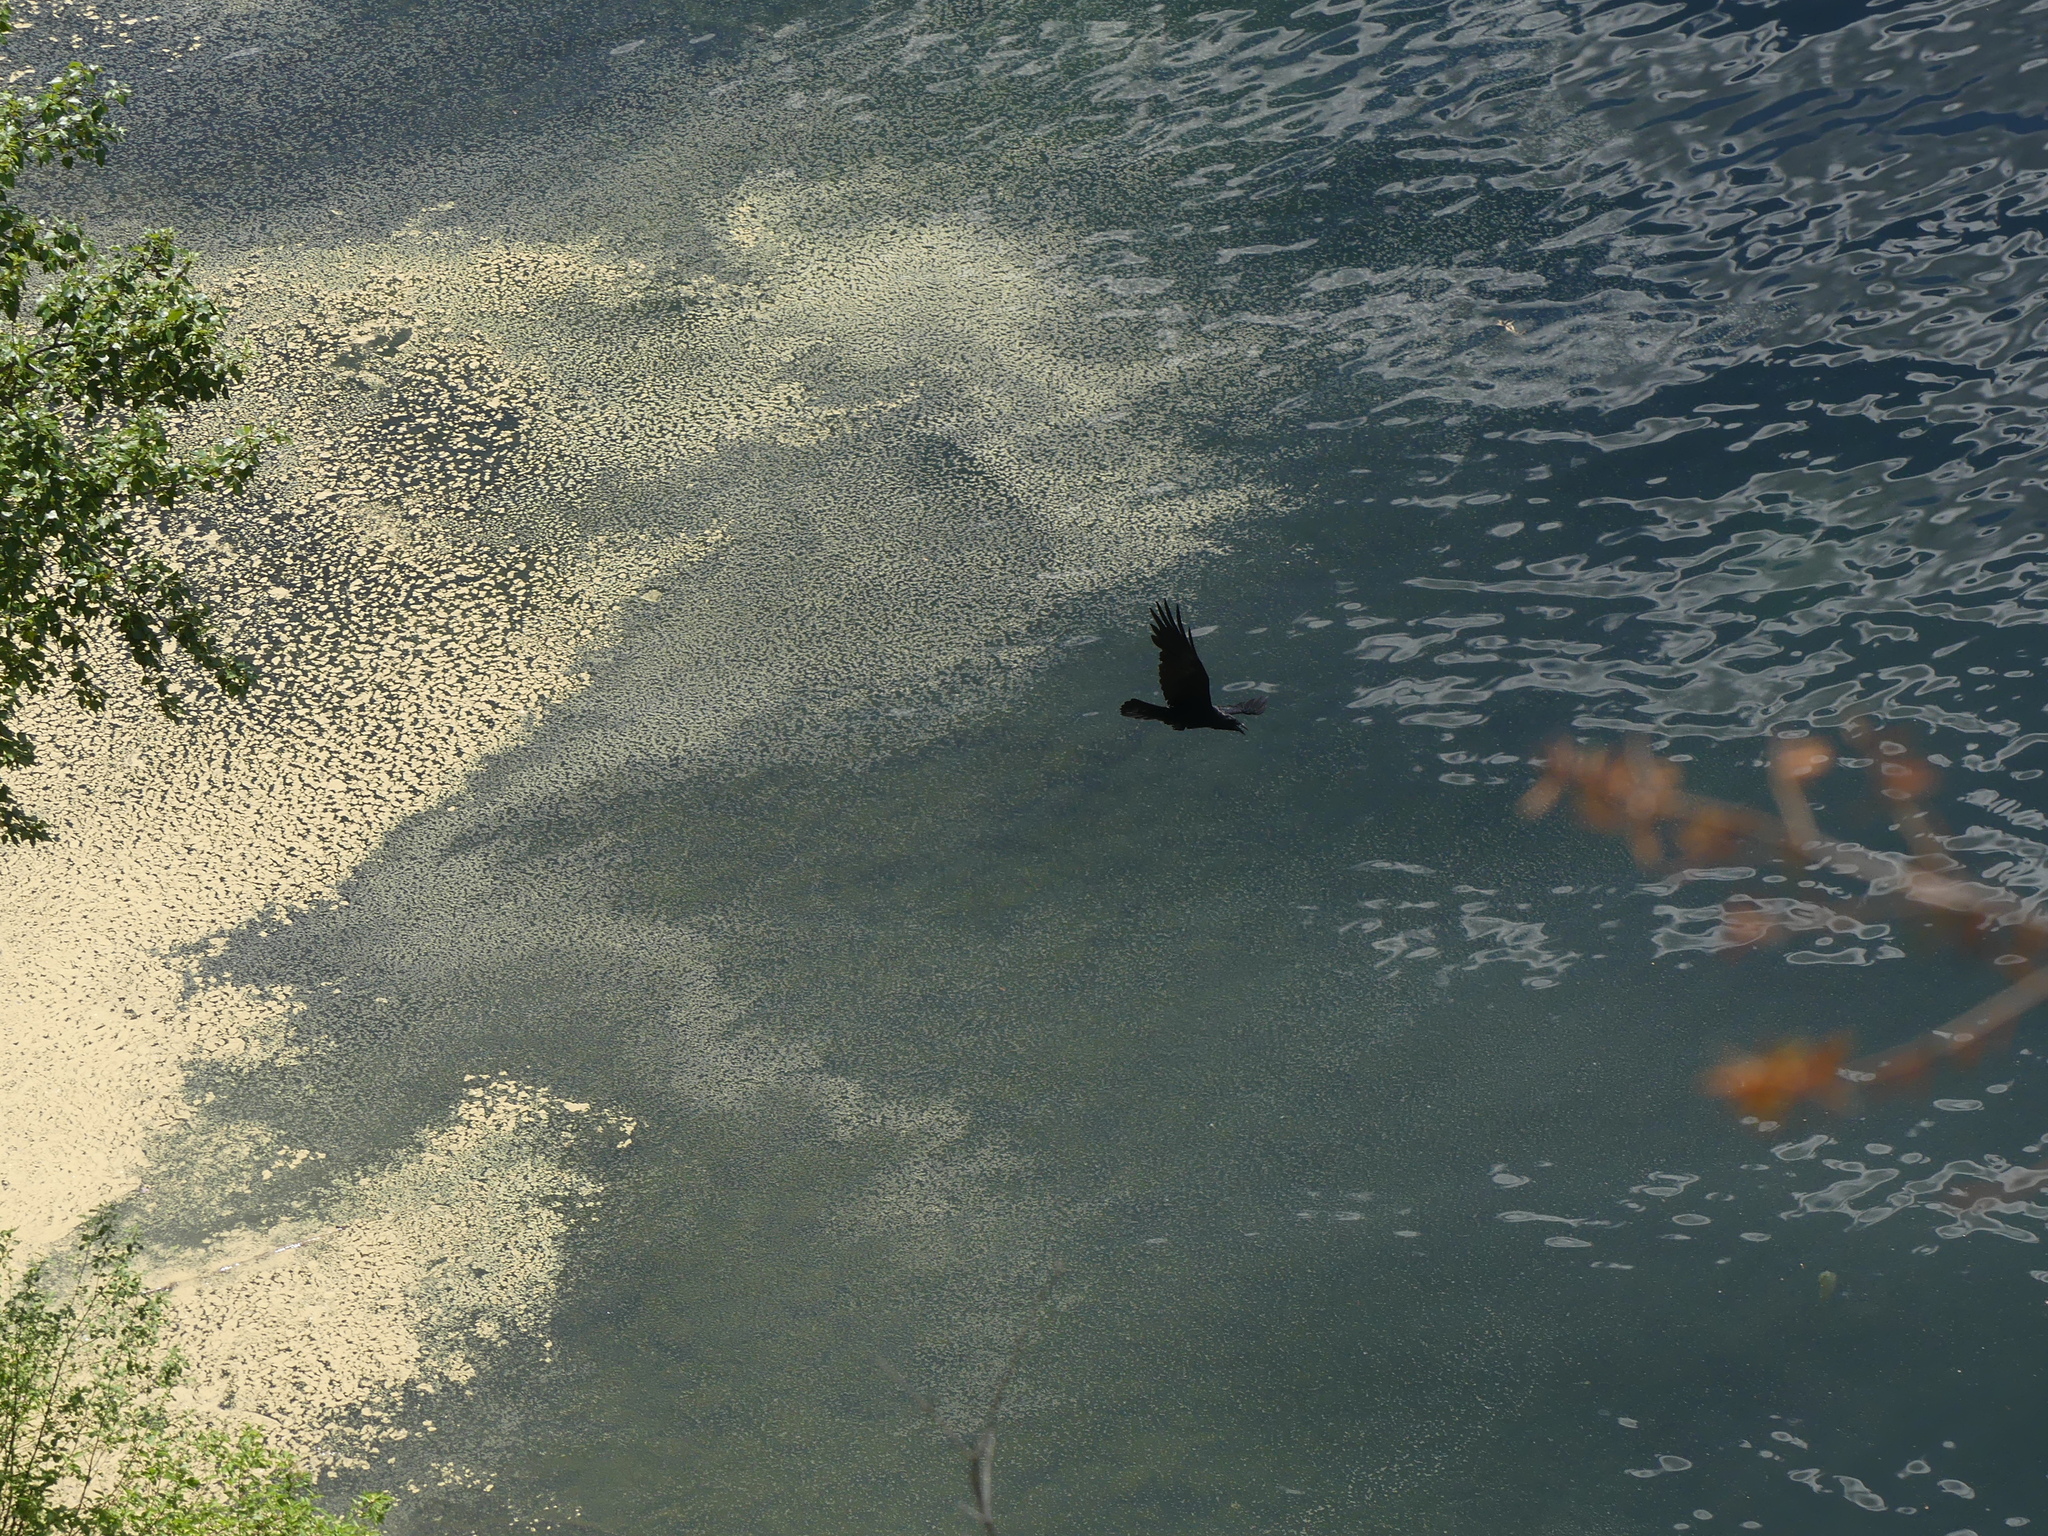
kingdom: Animalia
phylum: Chordata
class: Aves
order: Passeriformes
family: Corvidae
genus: Corvus
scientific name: Corvus corax
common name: Common raven
